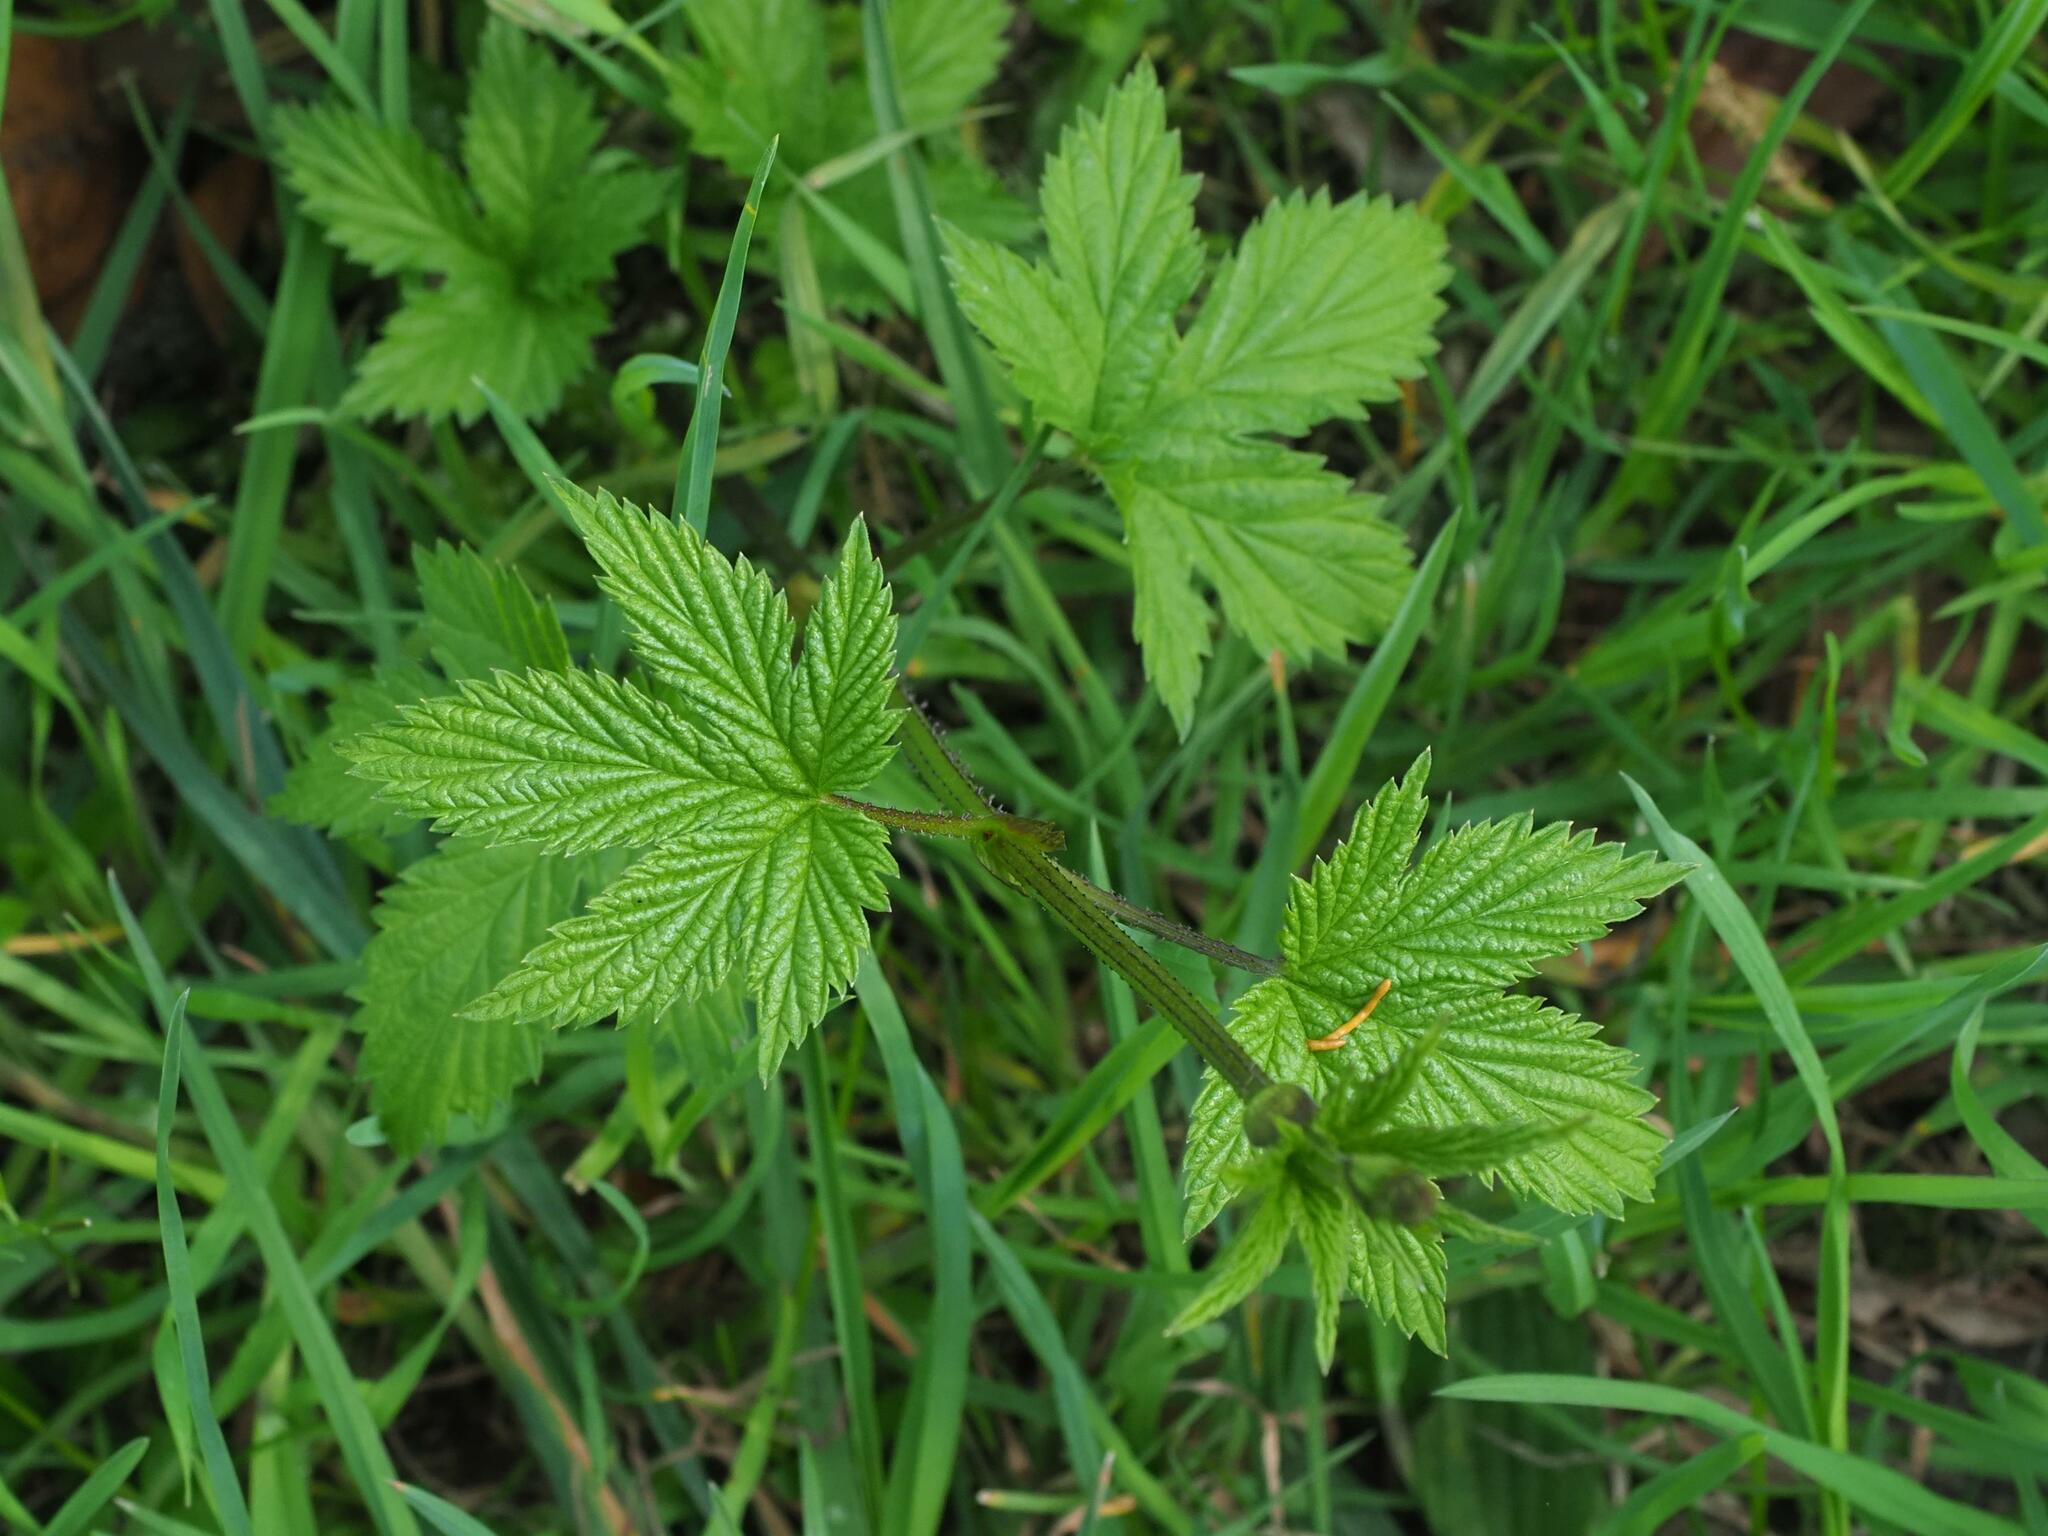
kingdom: Plantae
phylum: Tracheophyta
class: Magnoliopsida
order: Rosales
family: Cannabaceae
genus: Humulus
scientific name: Humulus lupulus
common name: Hop
